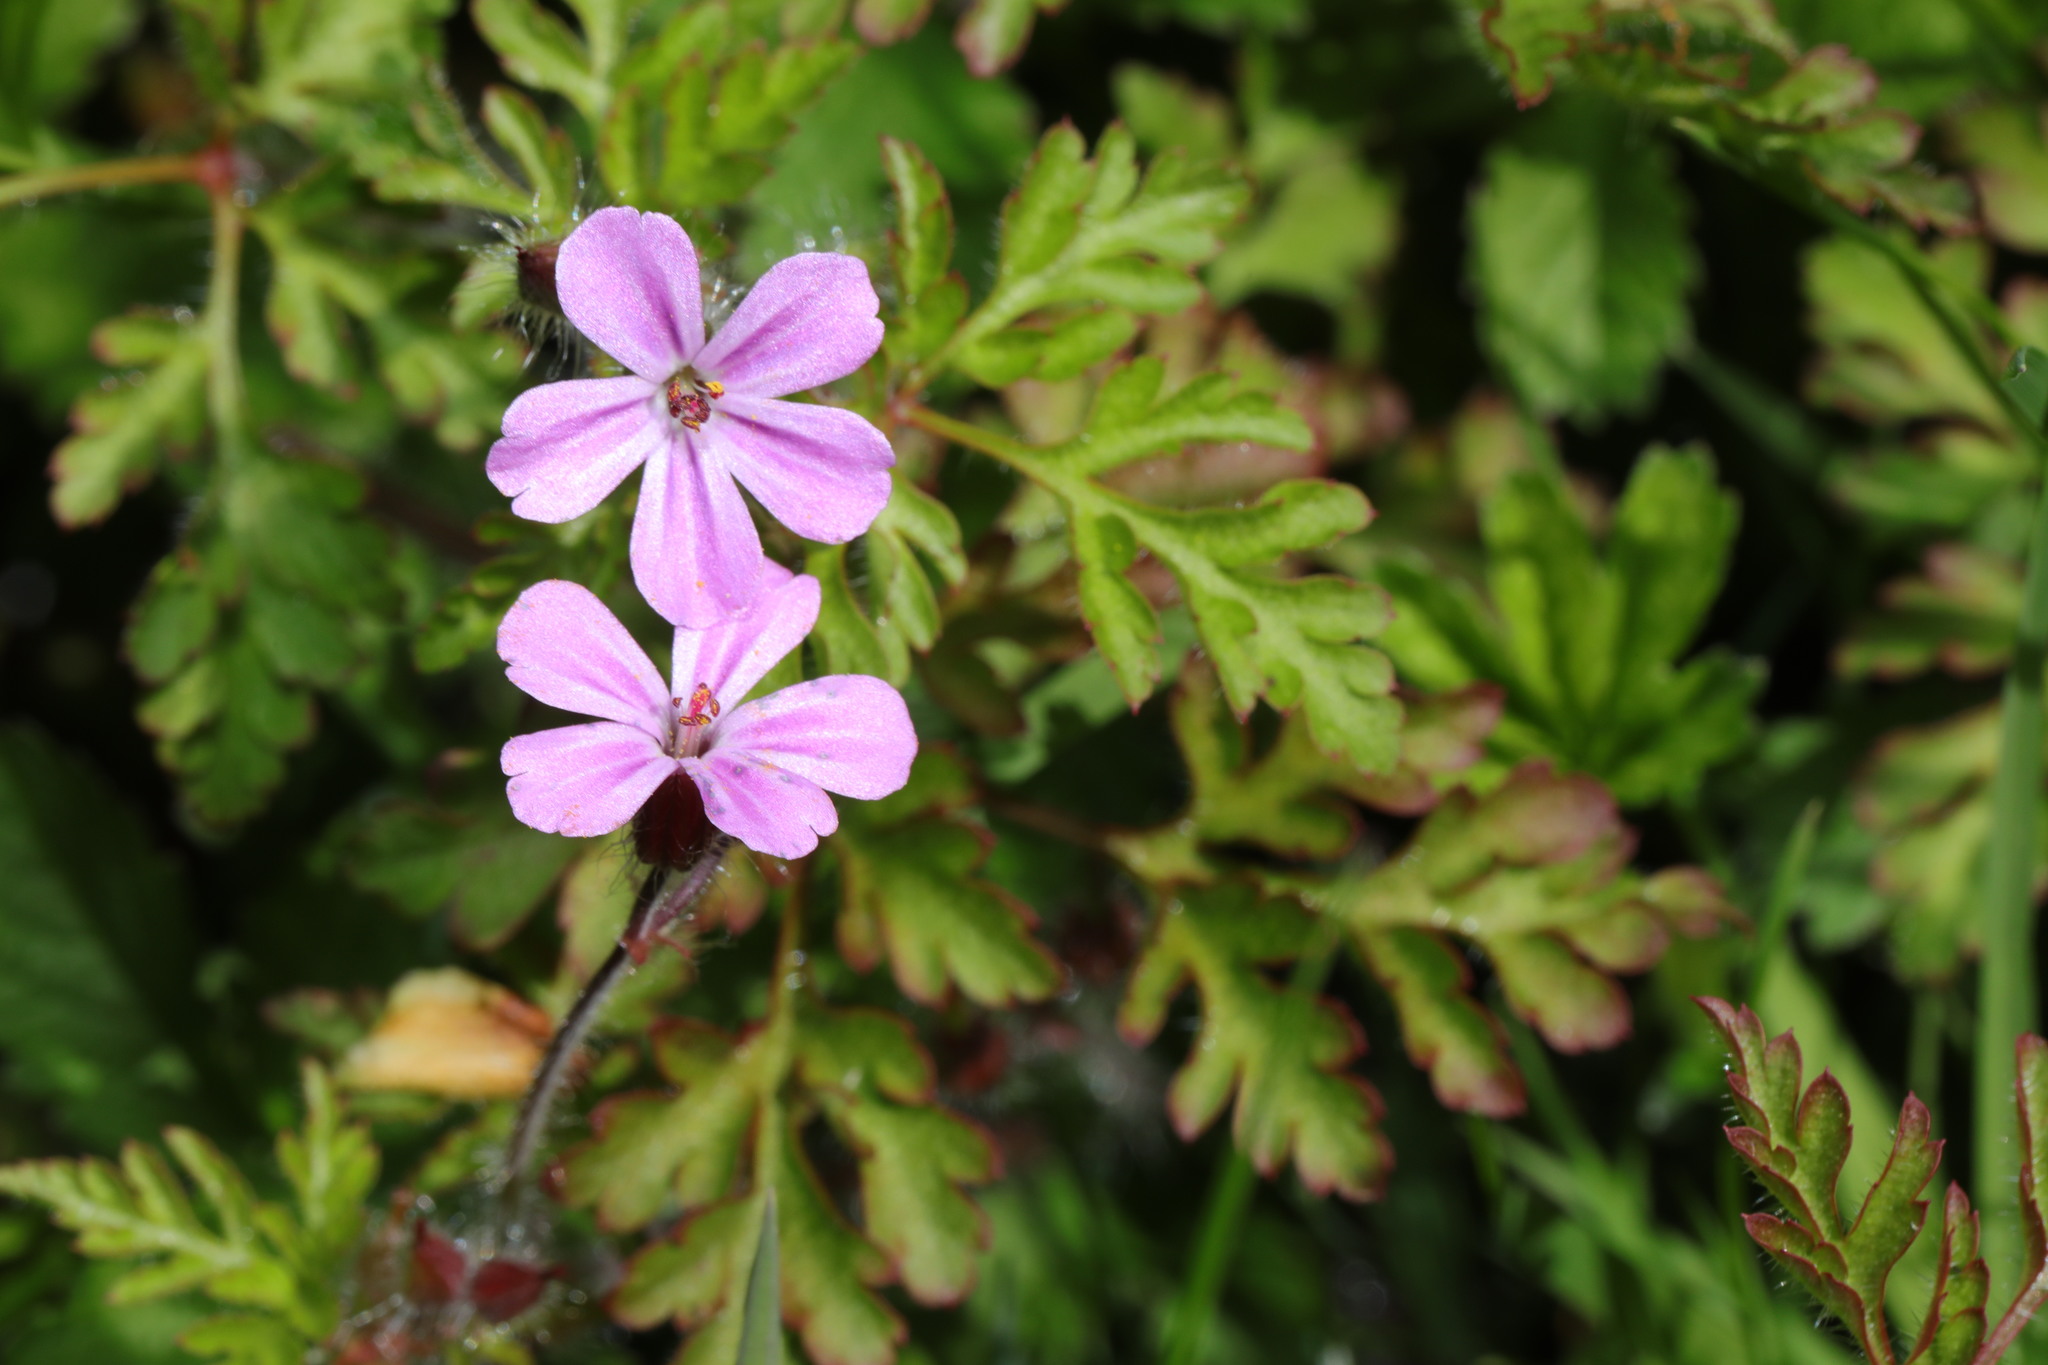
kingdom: Plantae
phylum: Tracheophyta
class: Magnoliopsida
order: Geraniales
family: Geraniaceae
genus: Geranium
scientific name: Geranium robertianum
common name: Herb-robert
